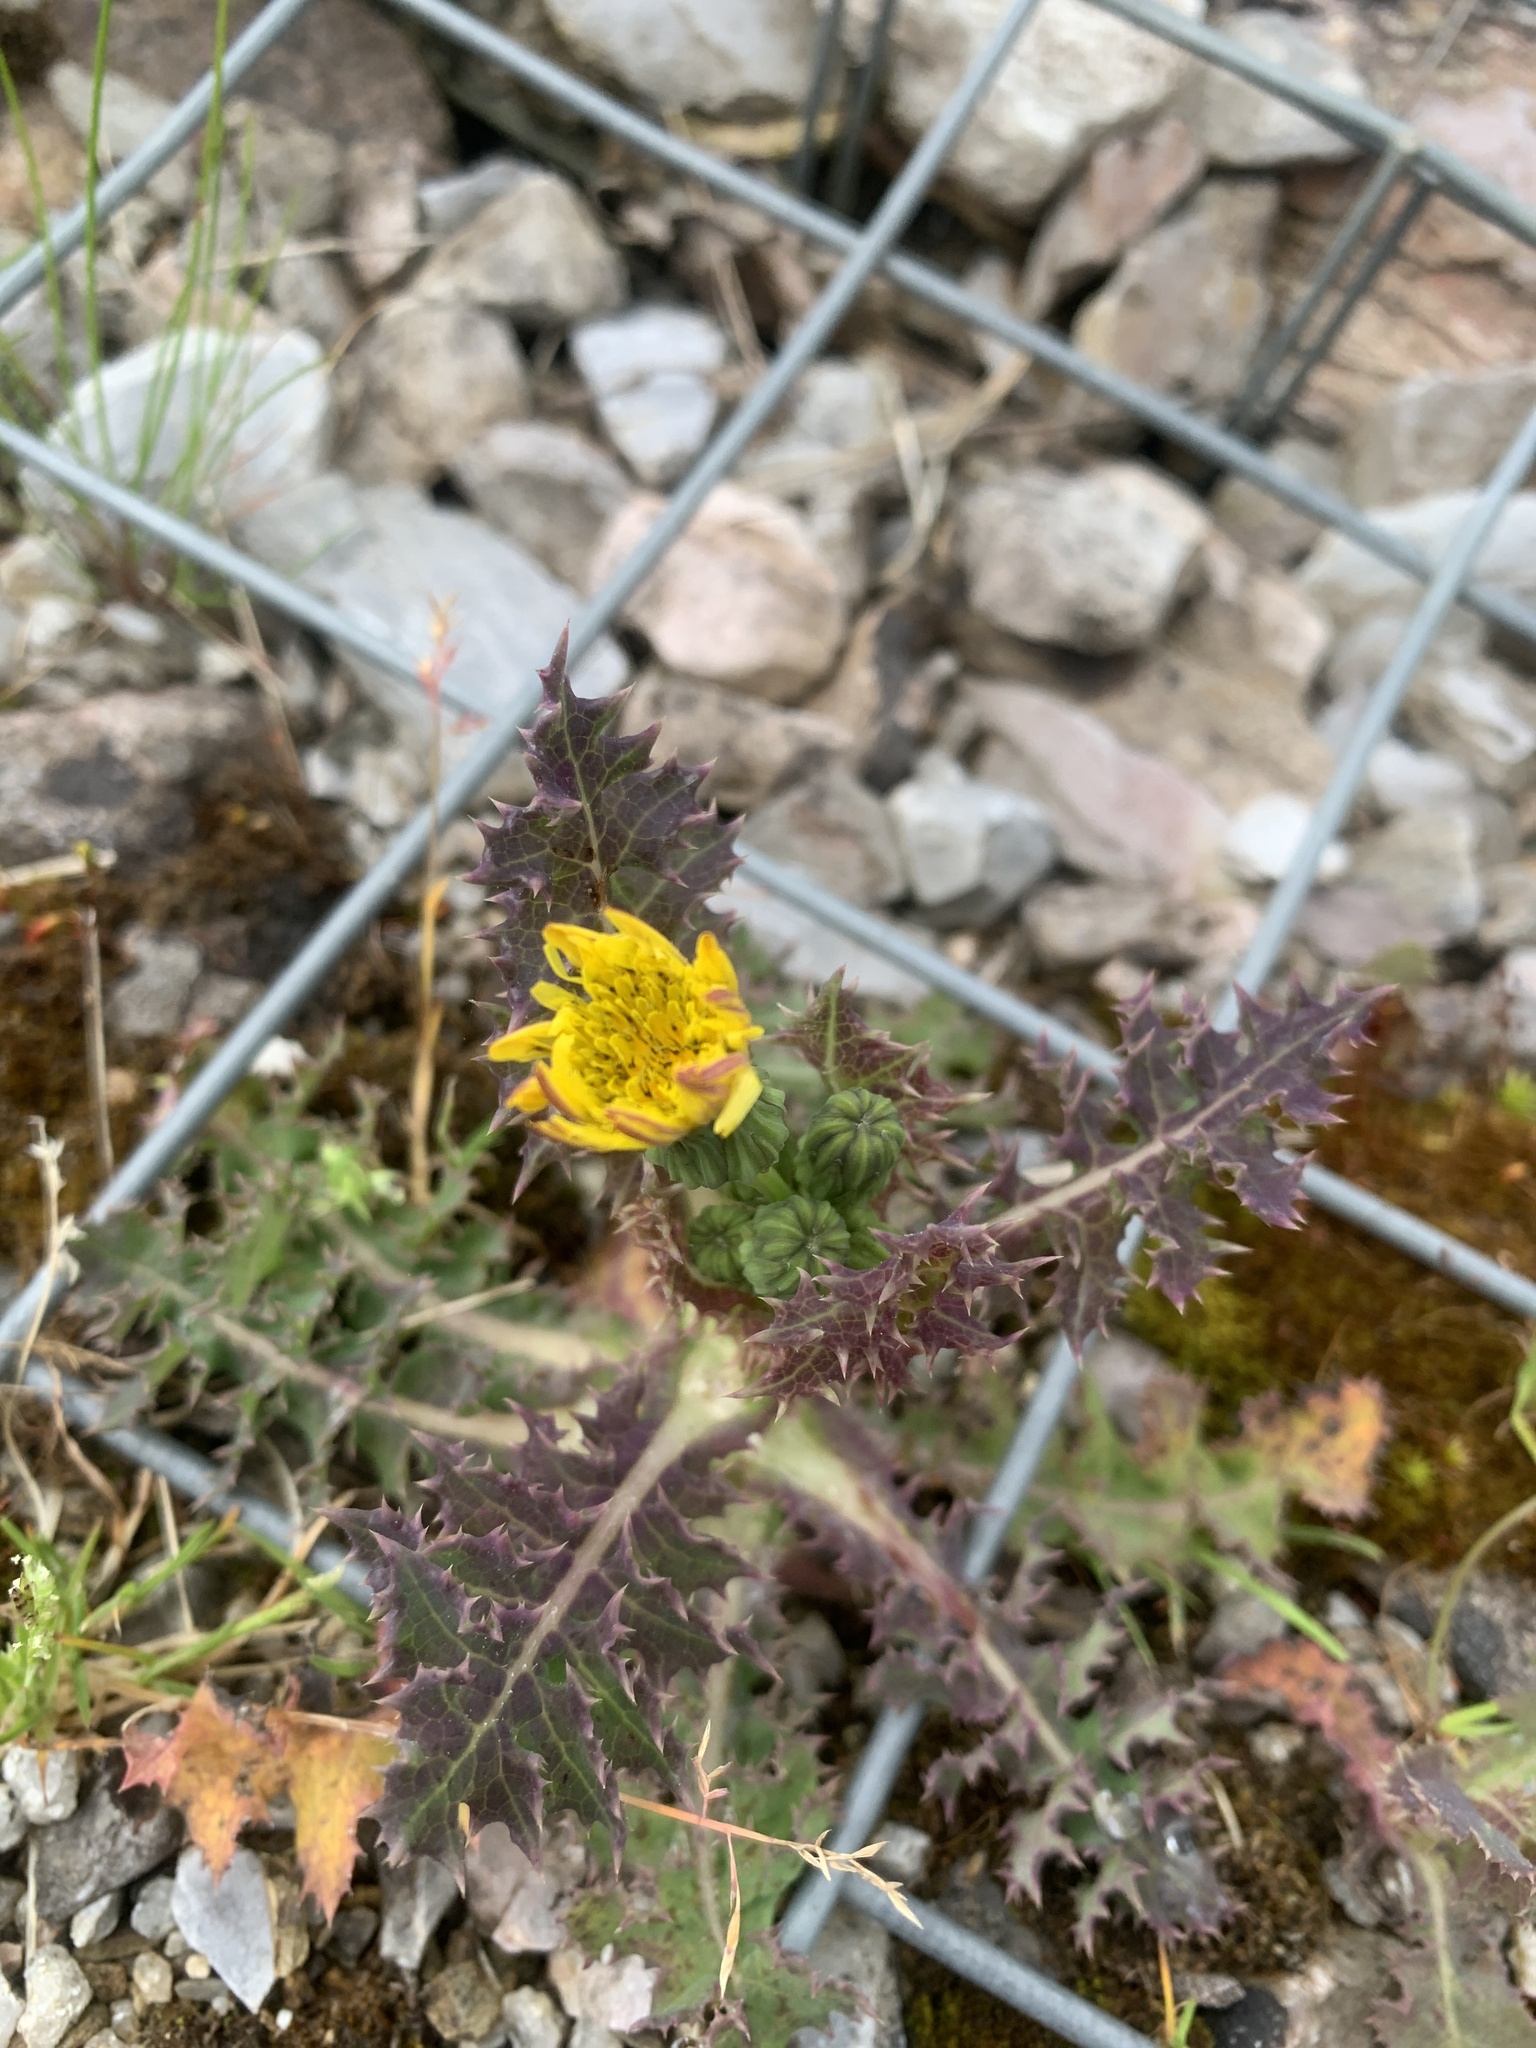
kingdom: Plantae
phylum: Tracheophyta
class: Magnoliopsida
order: Asterales
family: Asteraceae
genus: Sonchus
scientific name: Sonchus asper
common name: Prickly sow-thistle
